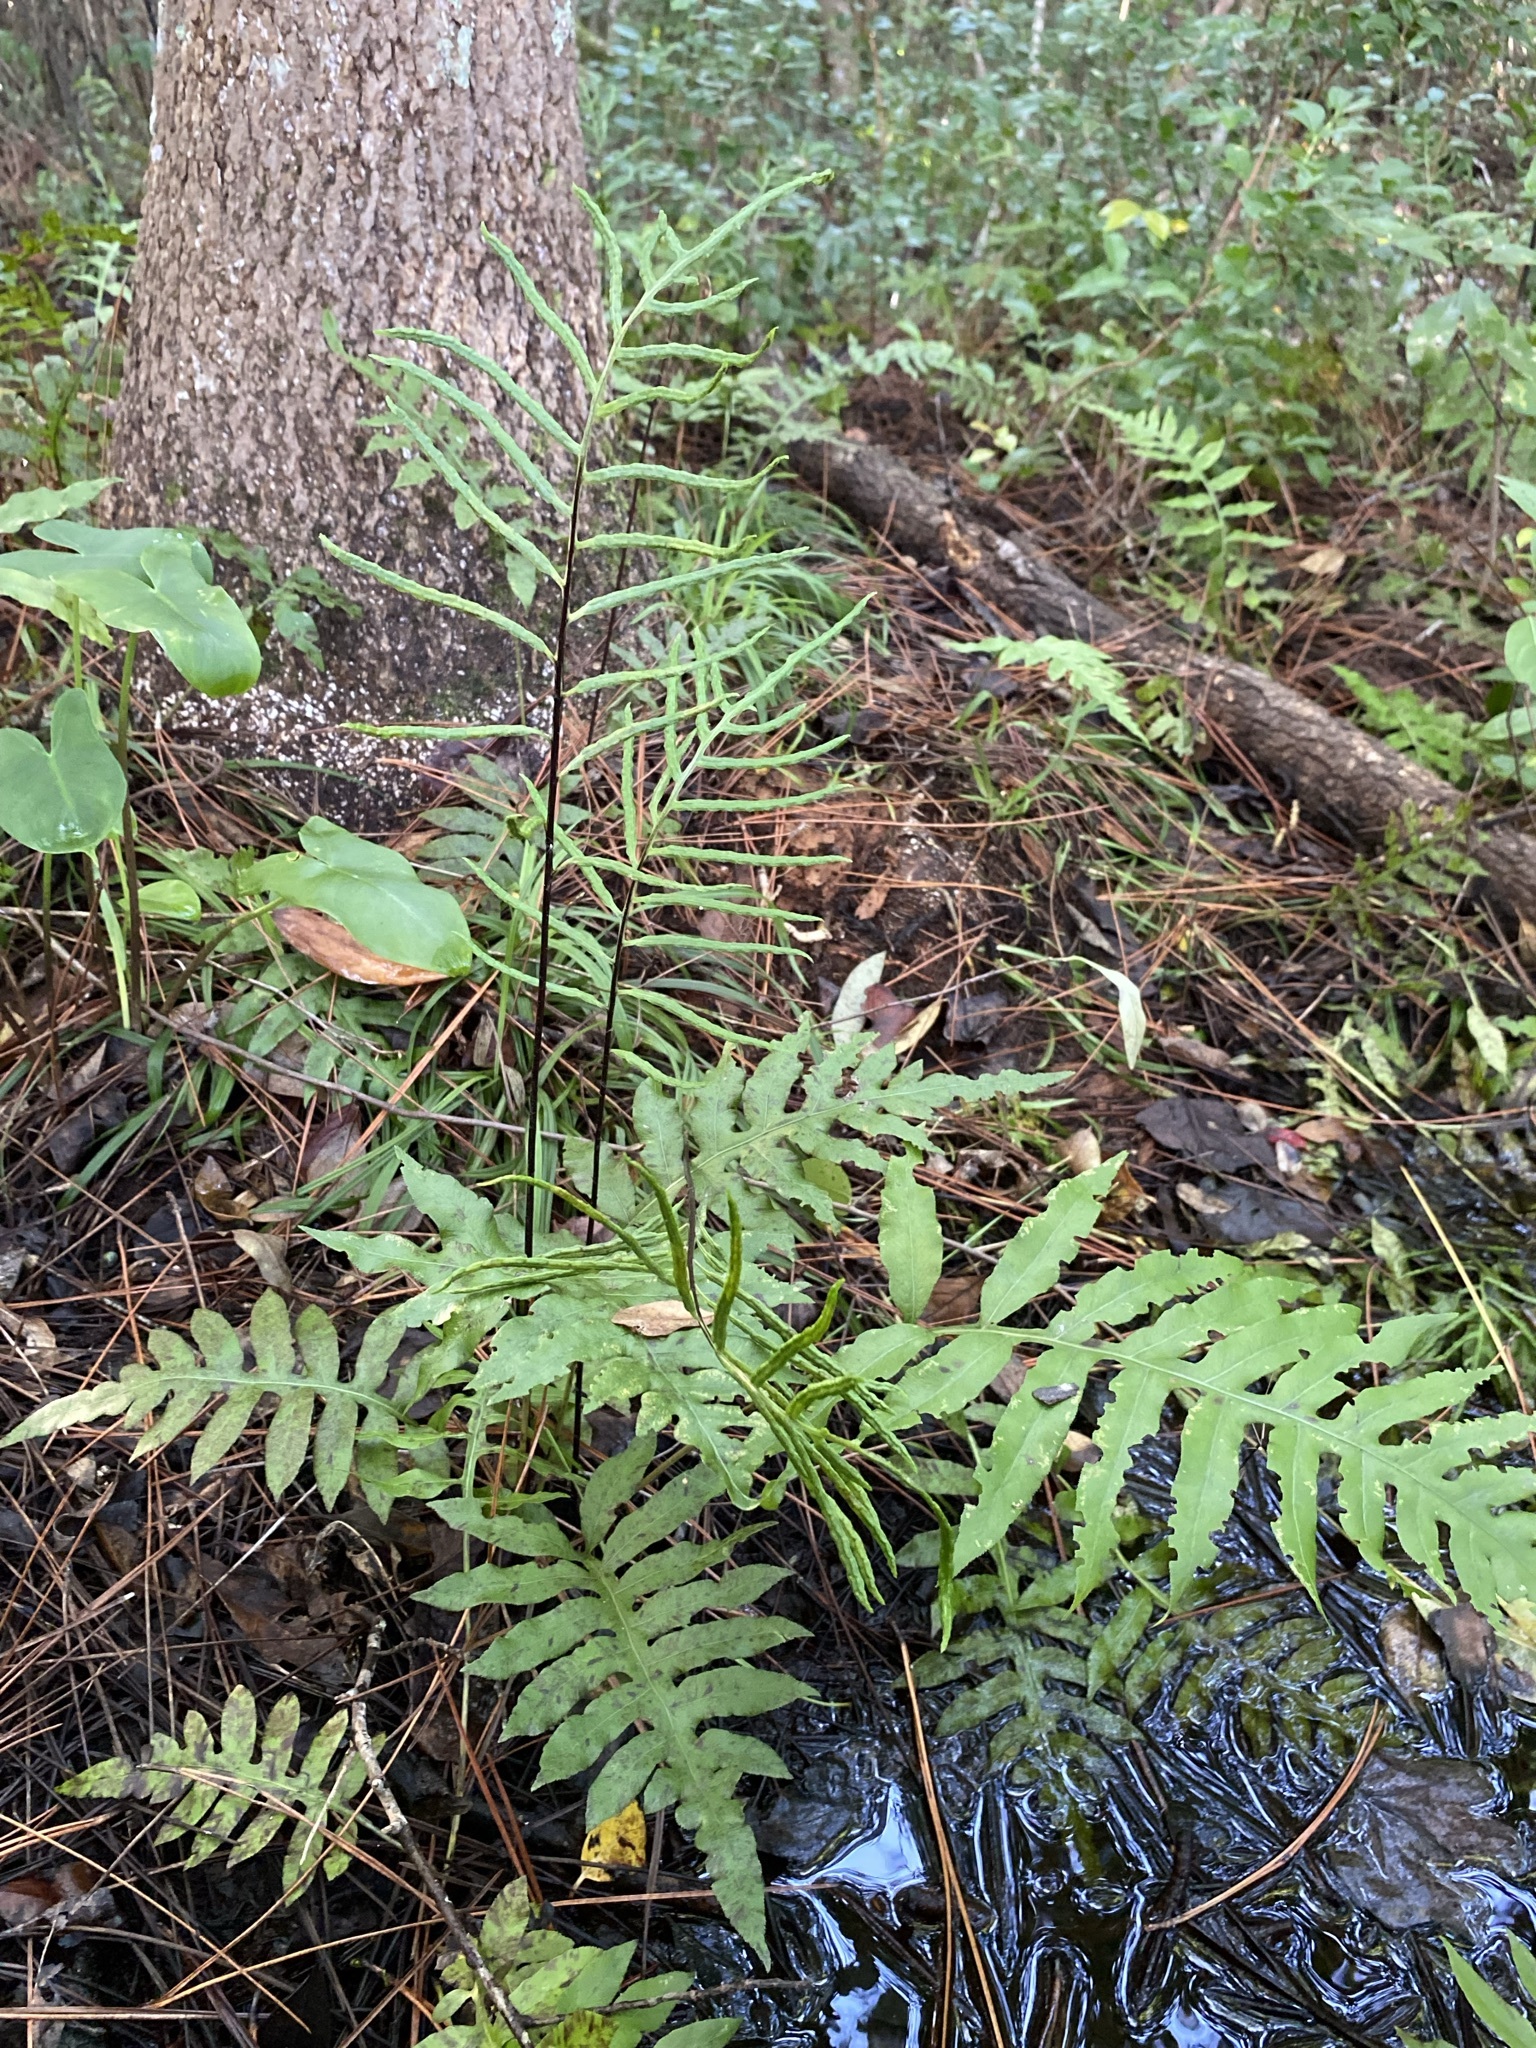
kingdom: Plantae
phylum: Tracheophyta
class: Polypodiopsida
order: Polypodiales
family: Blechnaceae
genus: Lorinseria
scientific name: Lorinseria areolata
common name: Dwarf chain fern
